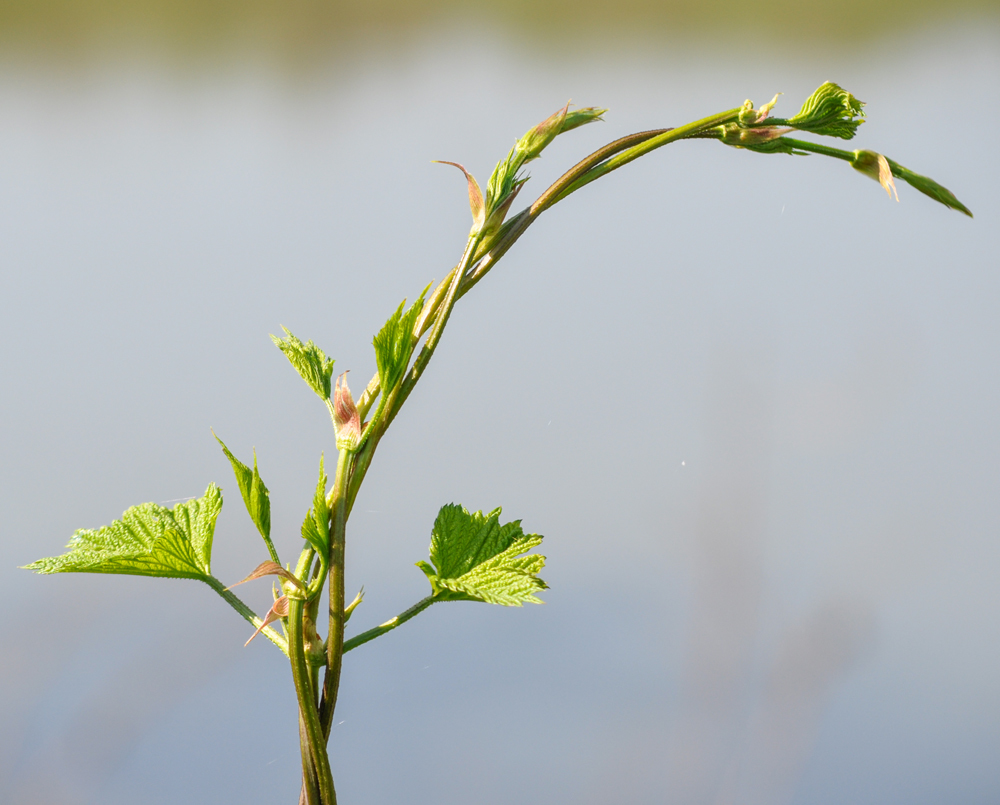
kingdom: Plantae
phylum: Tracheophyta
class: Magnoliopsida
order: Rosales
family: Cannabaceae
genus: Humulus
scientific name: Humulus lupulus
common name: Hop
